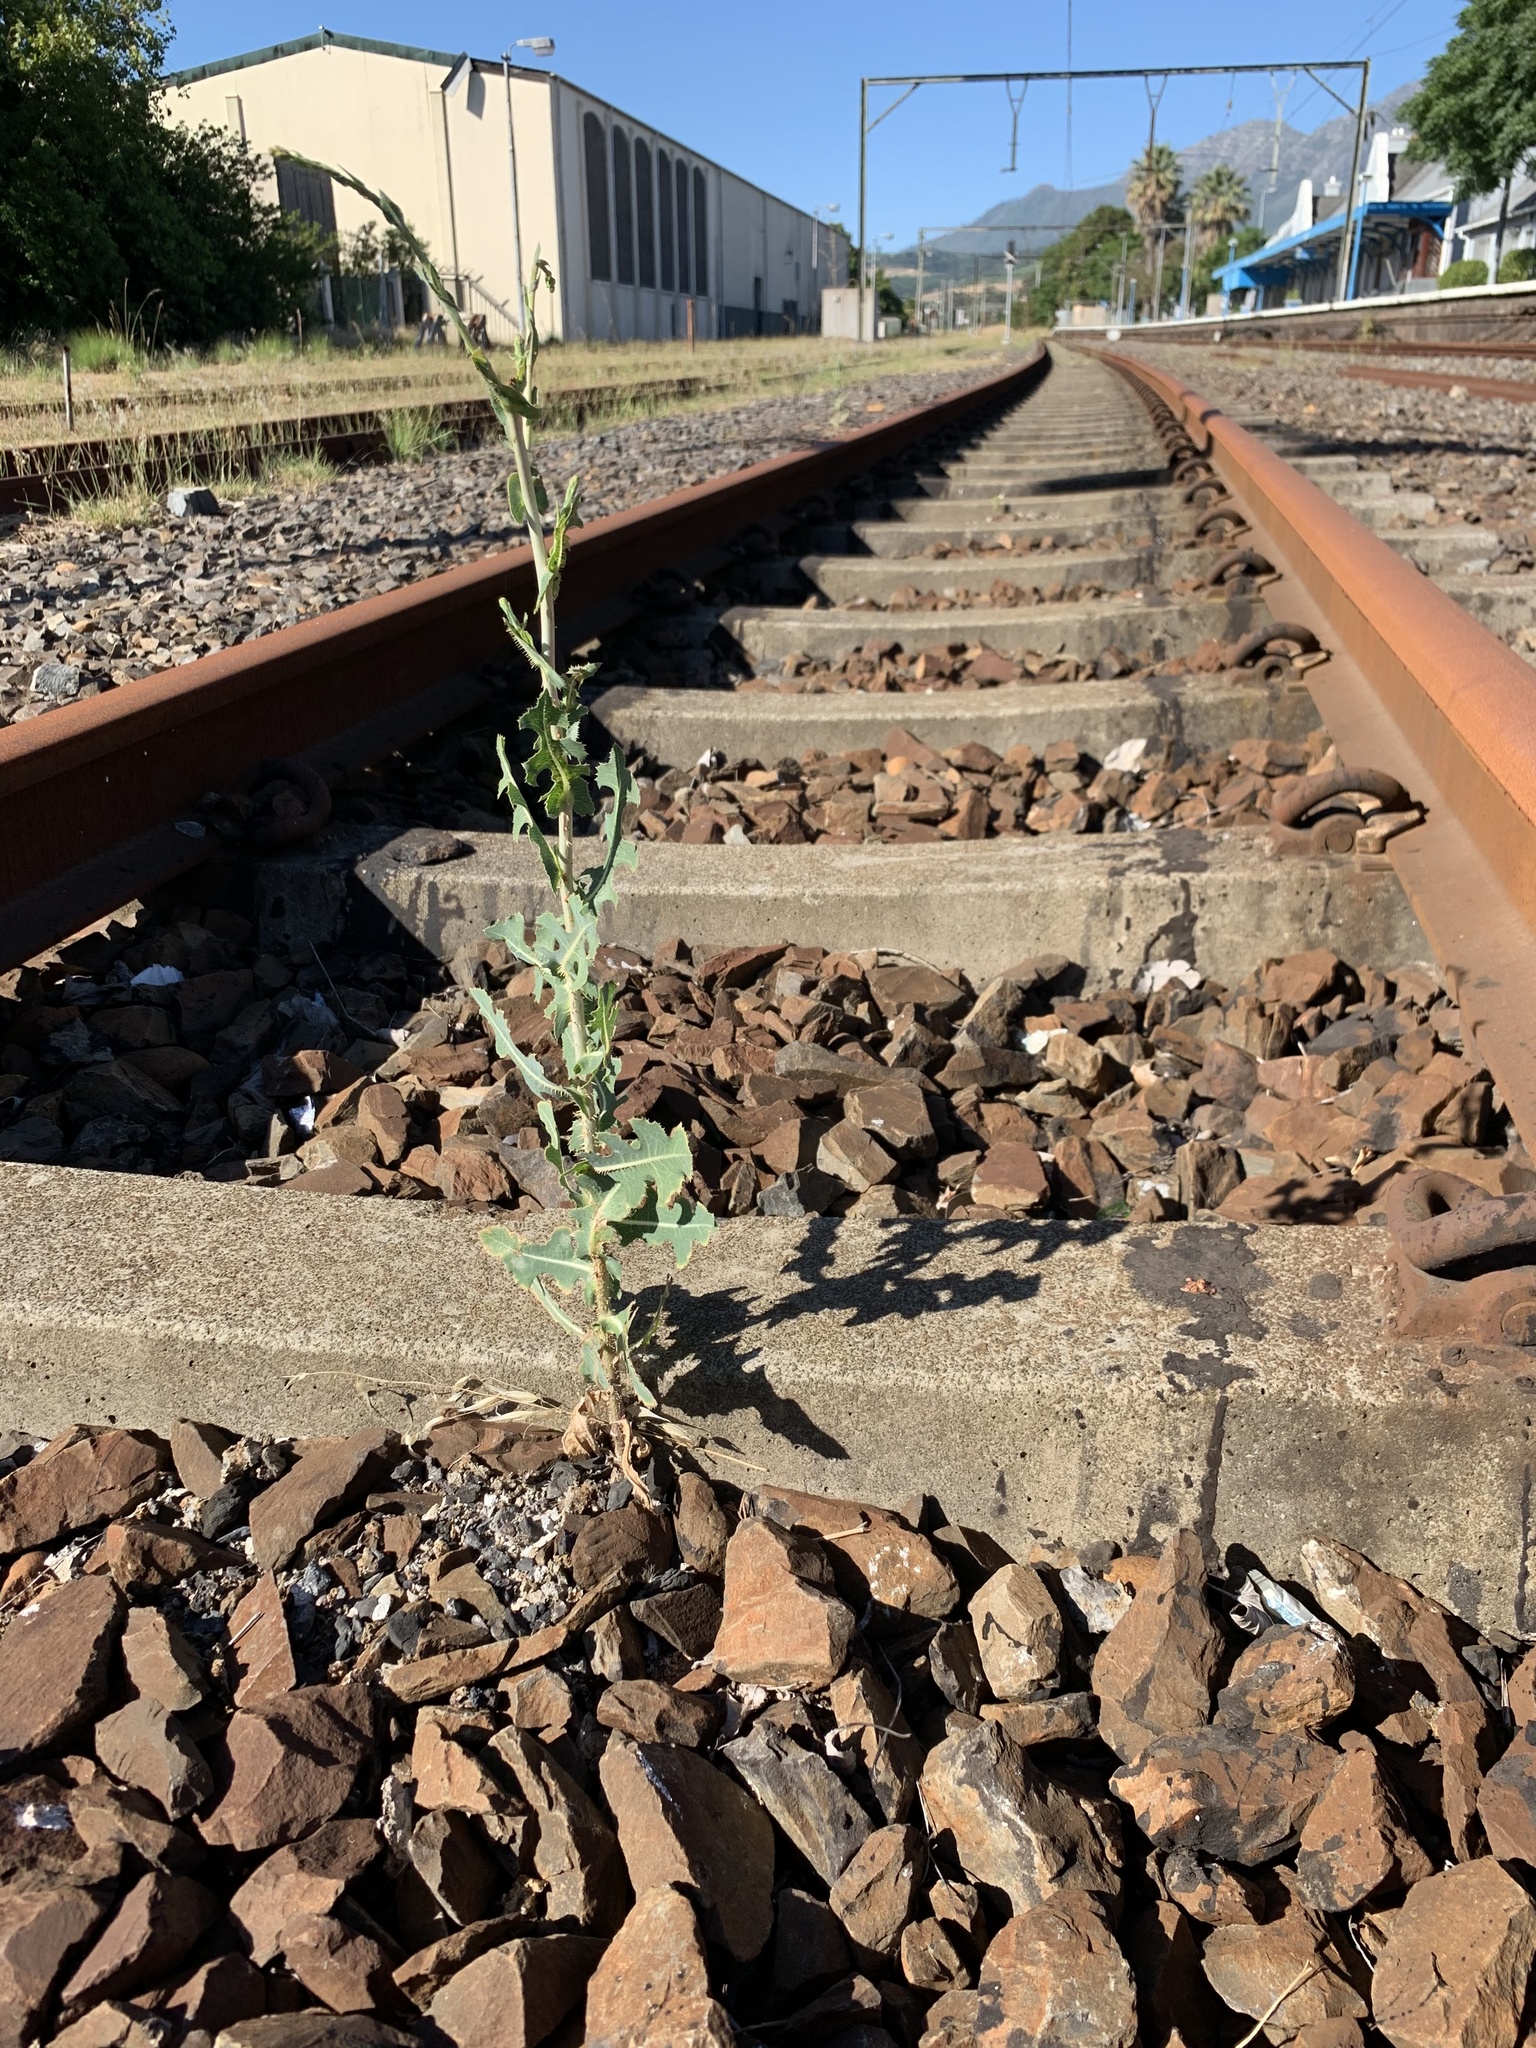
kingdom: Plantae
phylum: Tracheophyta
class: Magnoliopsida
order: Asterales
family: Asteraceae
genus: Lactuca
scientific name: Lactuca serriola
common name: Prickly lettuce
